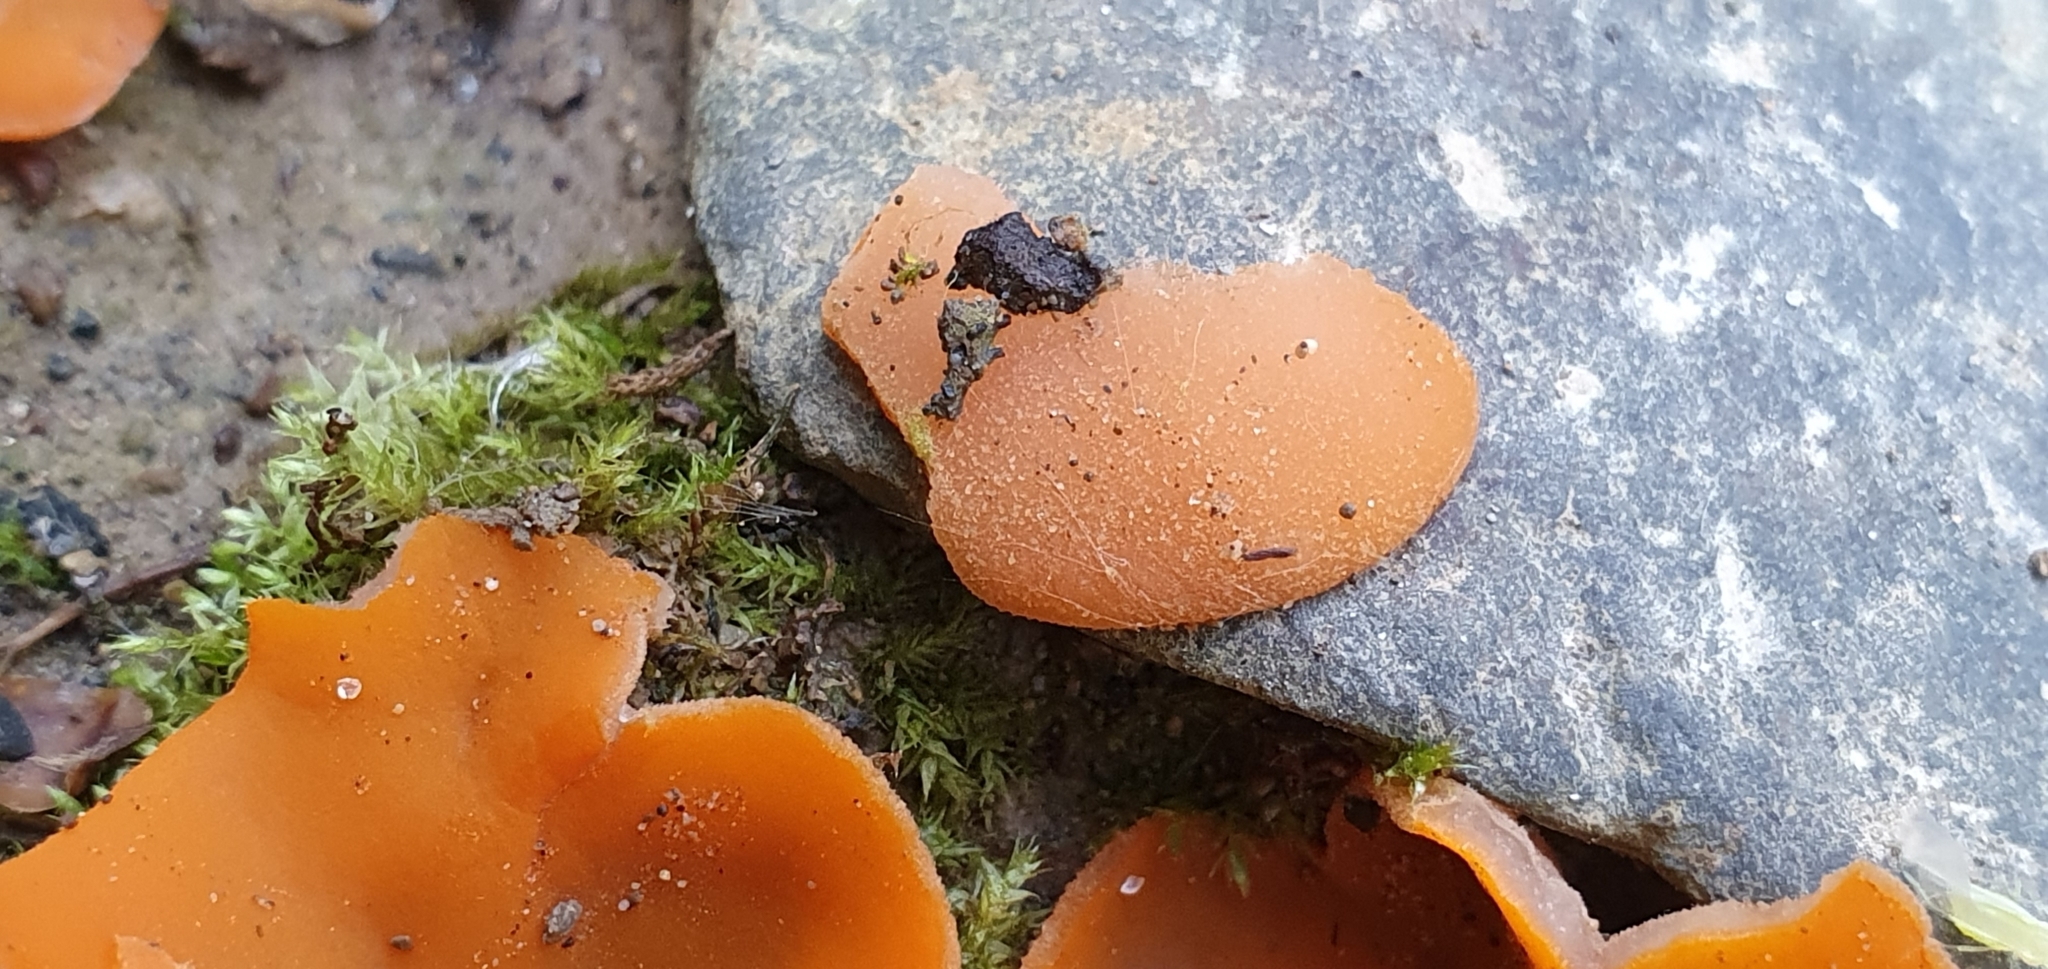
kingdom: Fungi
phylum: Ascomycota
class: Pezizomycetes
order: Pezizales
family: Pyronemataceae
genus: Aleuria
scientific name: Aleuria aurantia
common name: Orange peel fungus
